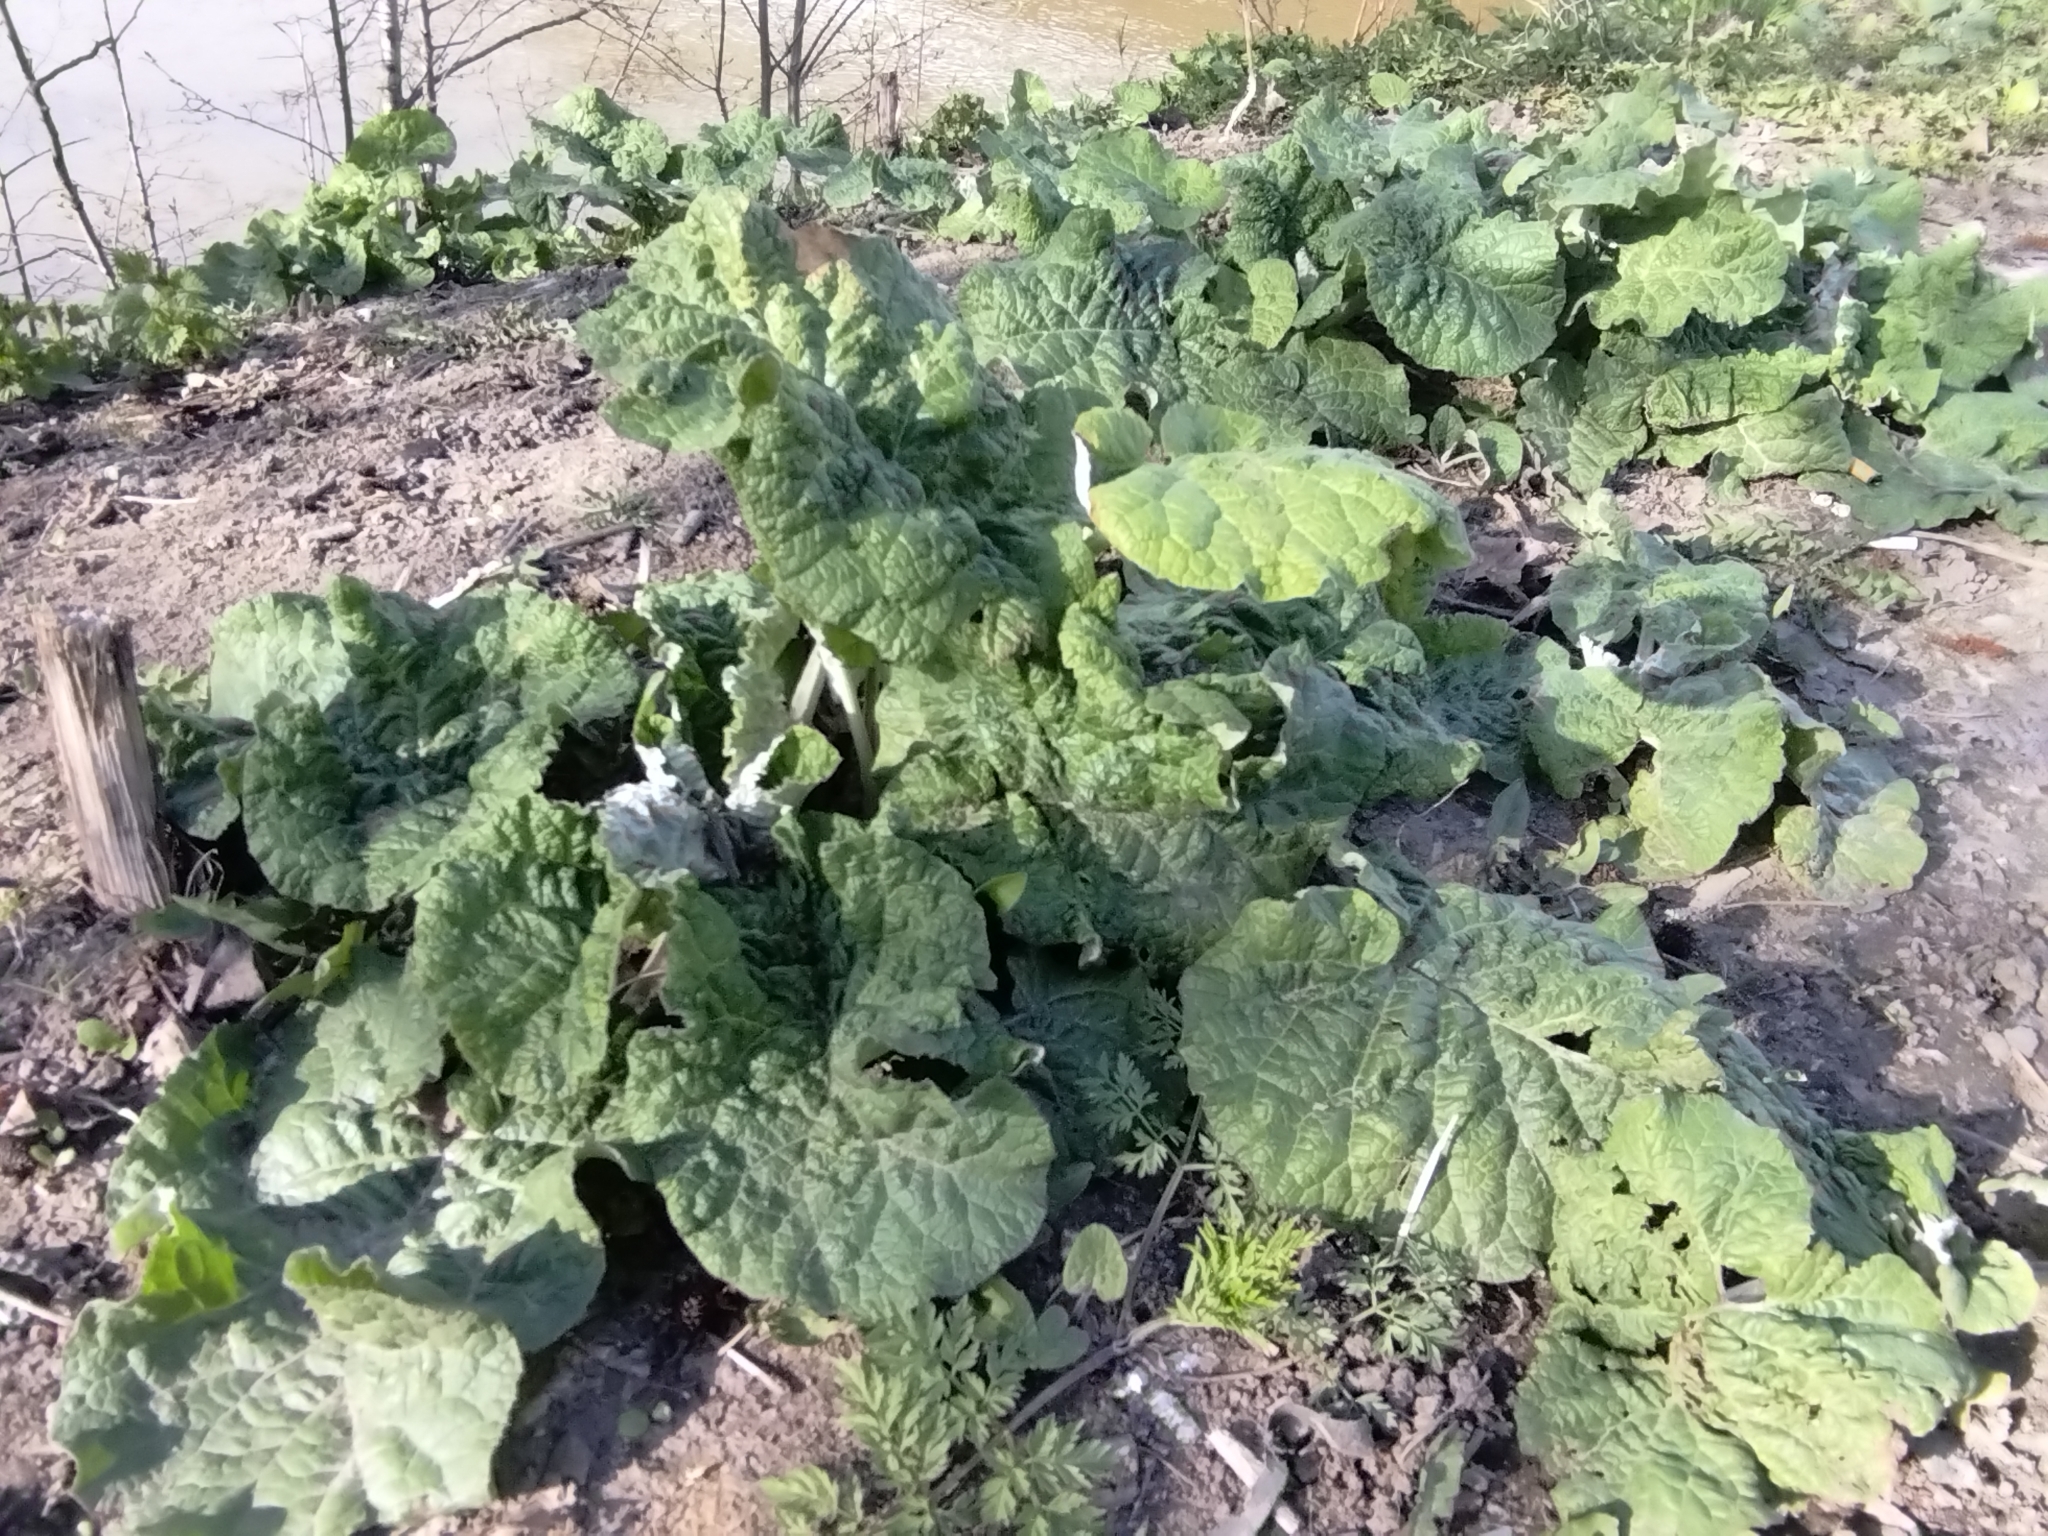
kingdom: Plantae
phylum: Tracheophyta
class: Magnoliopsida
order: Asterales
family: Asteraceae
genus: Arctium
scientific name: Arctium tomentosum
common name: Woolly burdock
